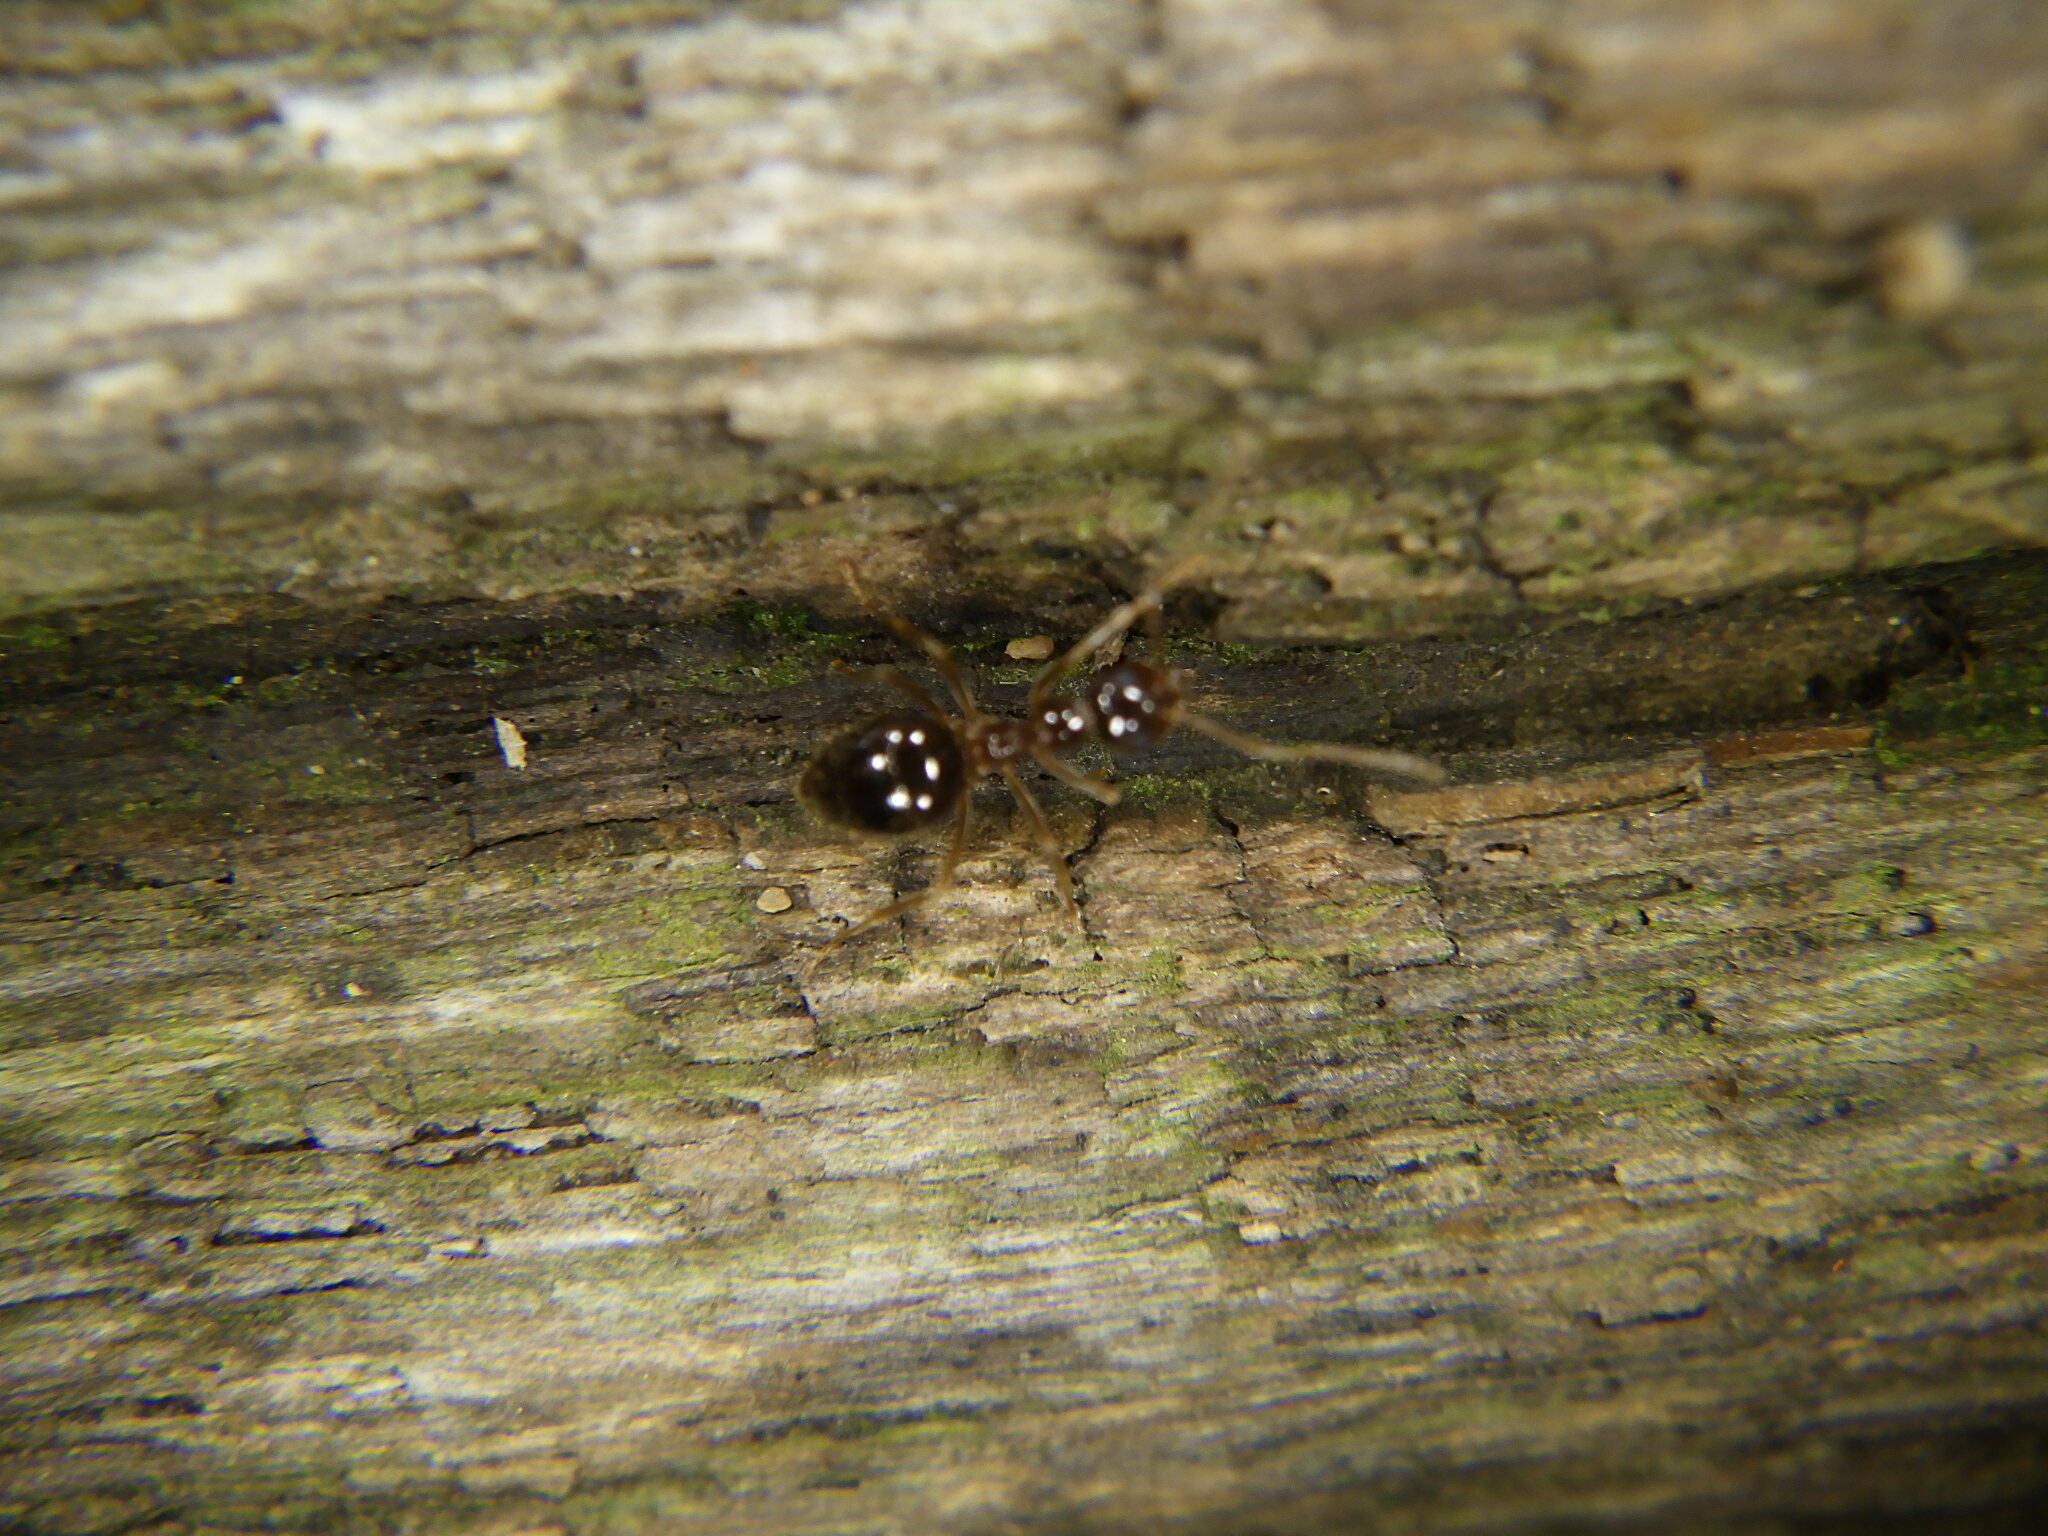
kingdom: Animalia
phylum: Arthropoda
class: Insecta
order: Hymenoptera
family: Formicidae
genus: Prenolepis
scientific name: Prenolepis imparis
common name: Small honey ant
